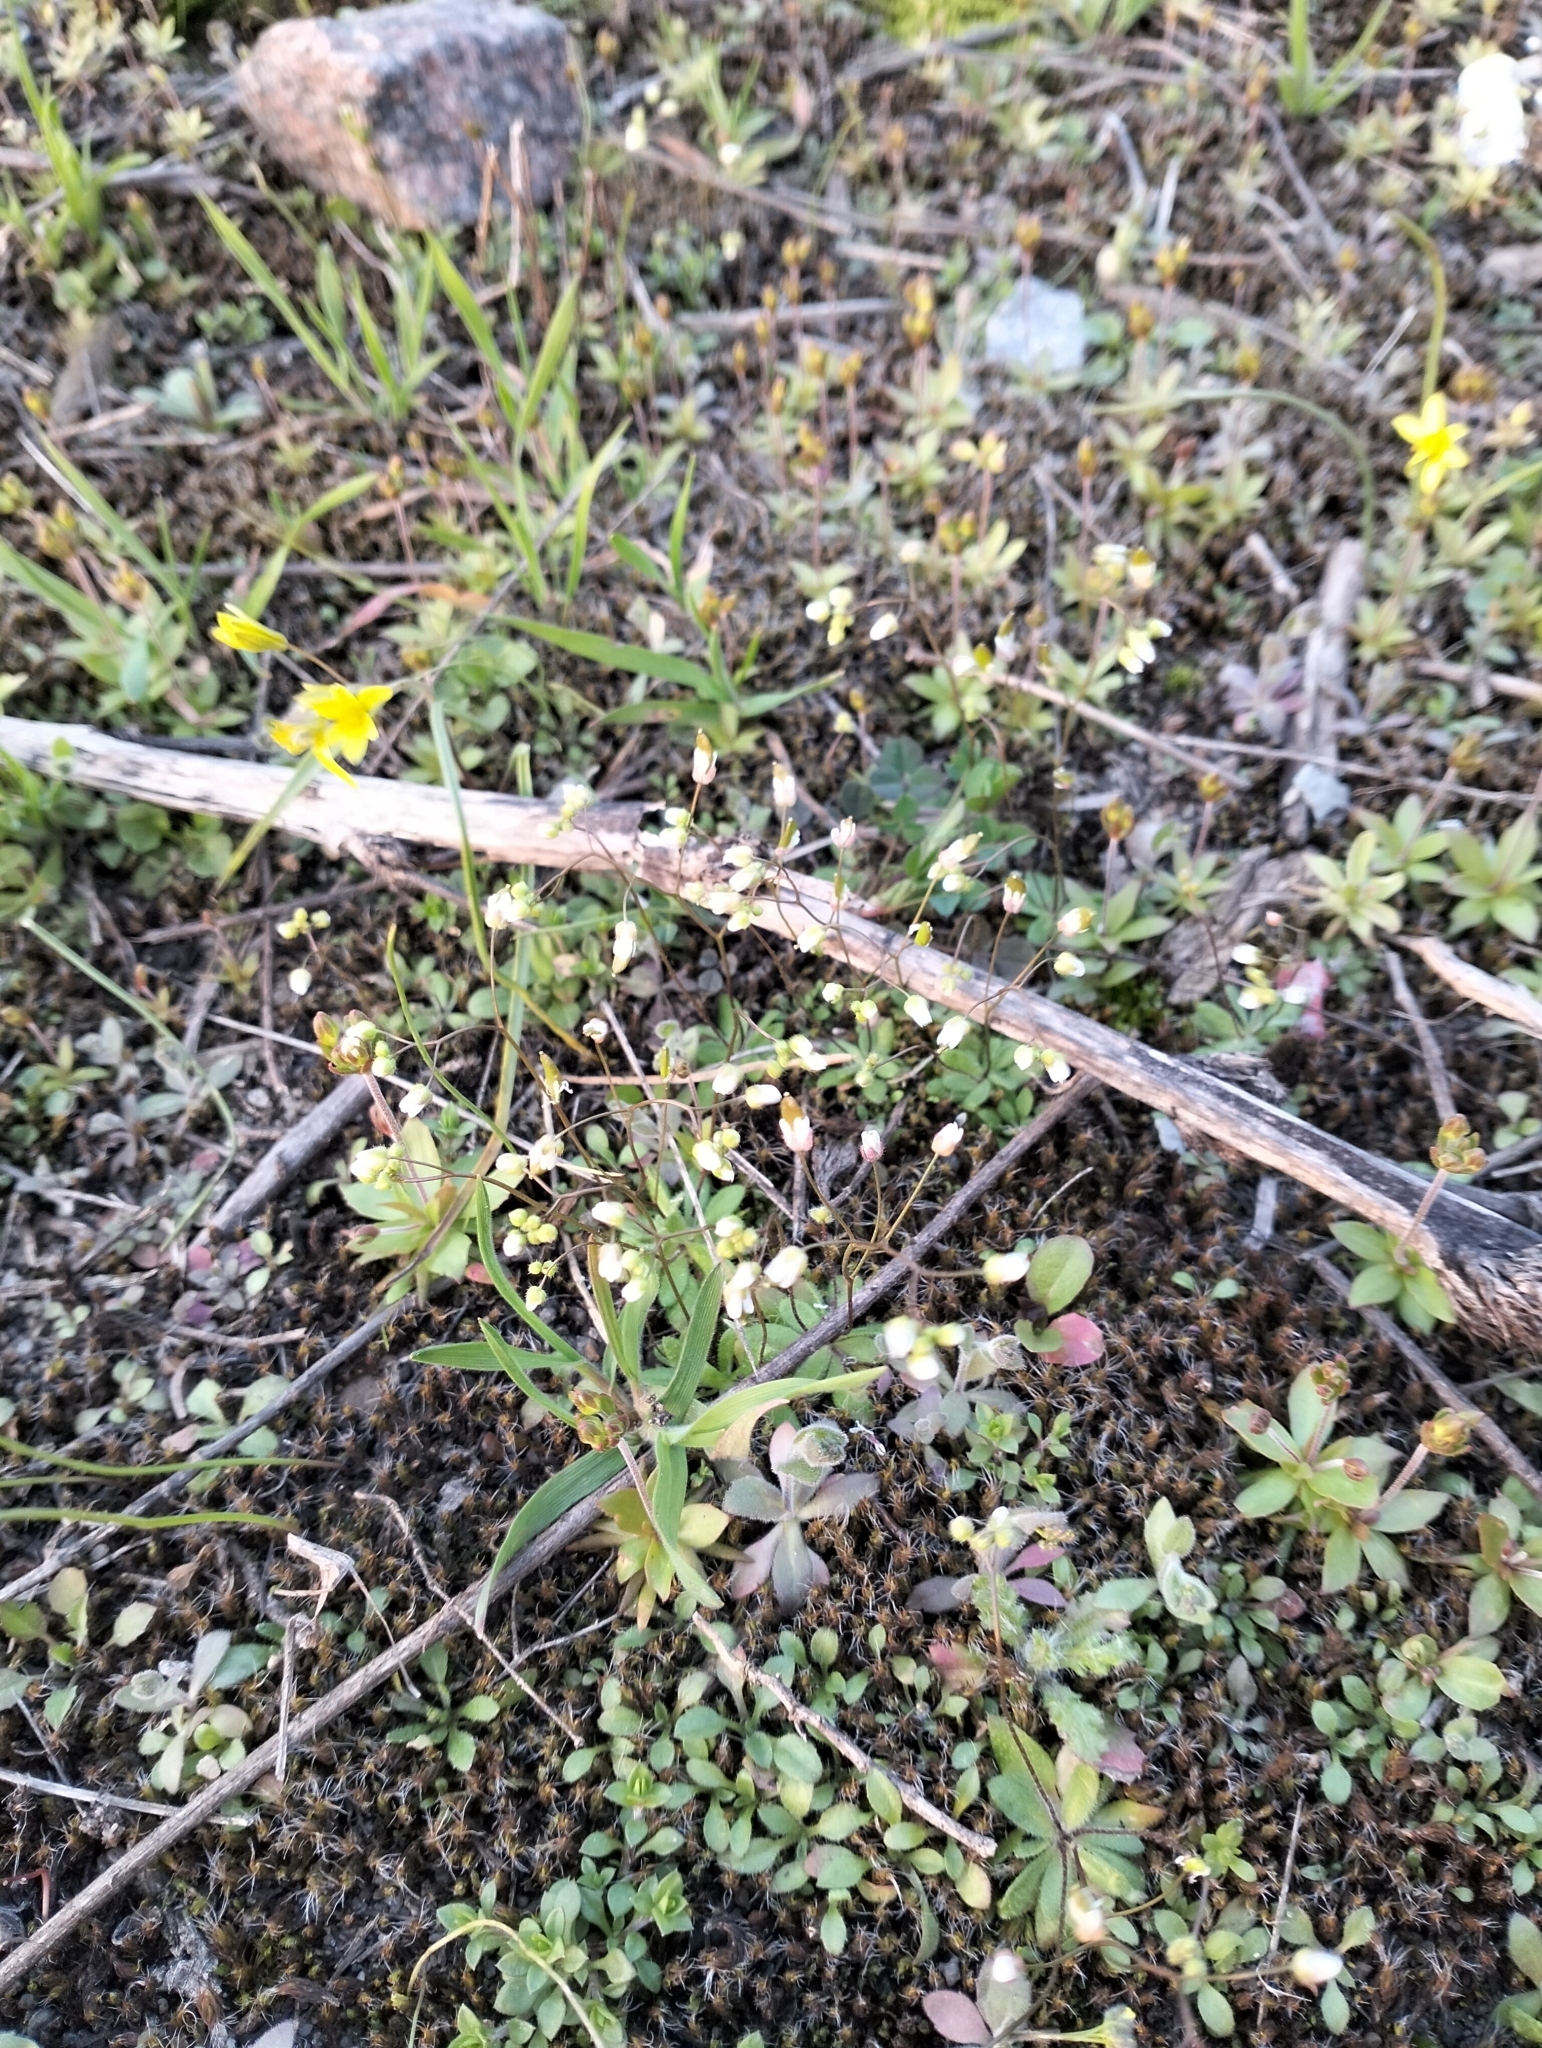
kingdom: Plantae
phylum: Tracheophyta
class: Magnoliopsida
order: Brassicales
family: Brassicaceae
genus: Draba
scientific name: Draba verna
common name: Spring draba
